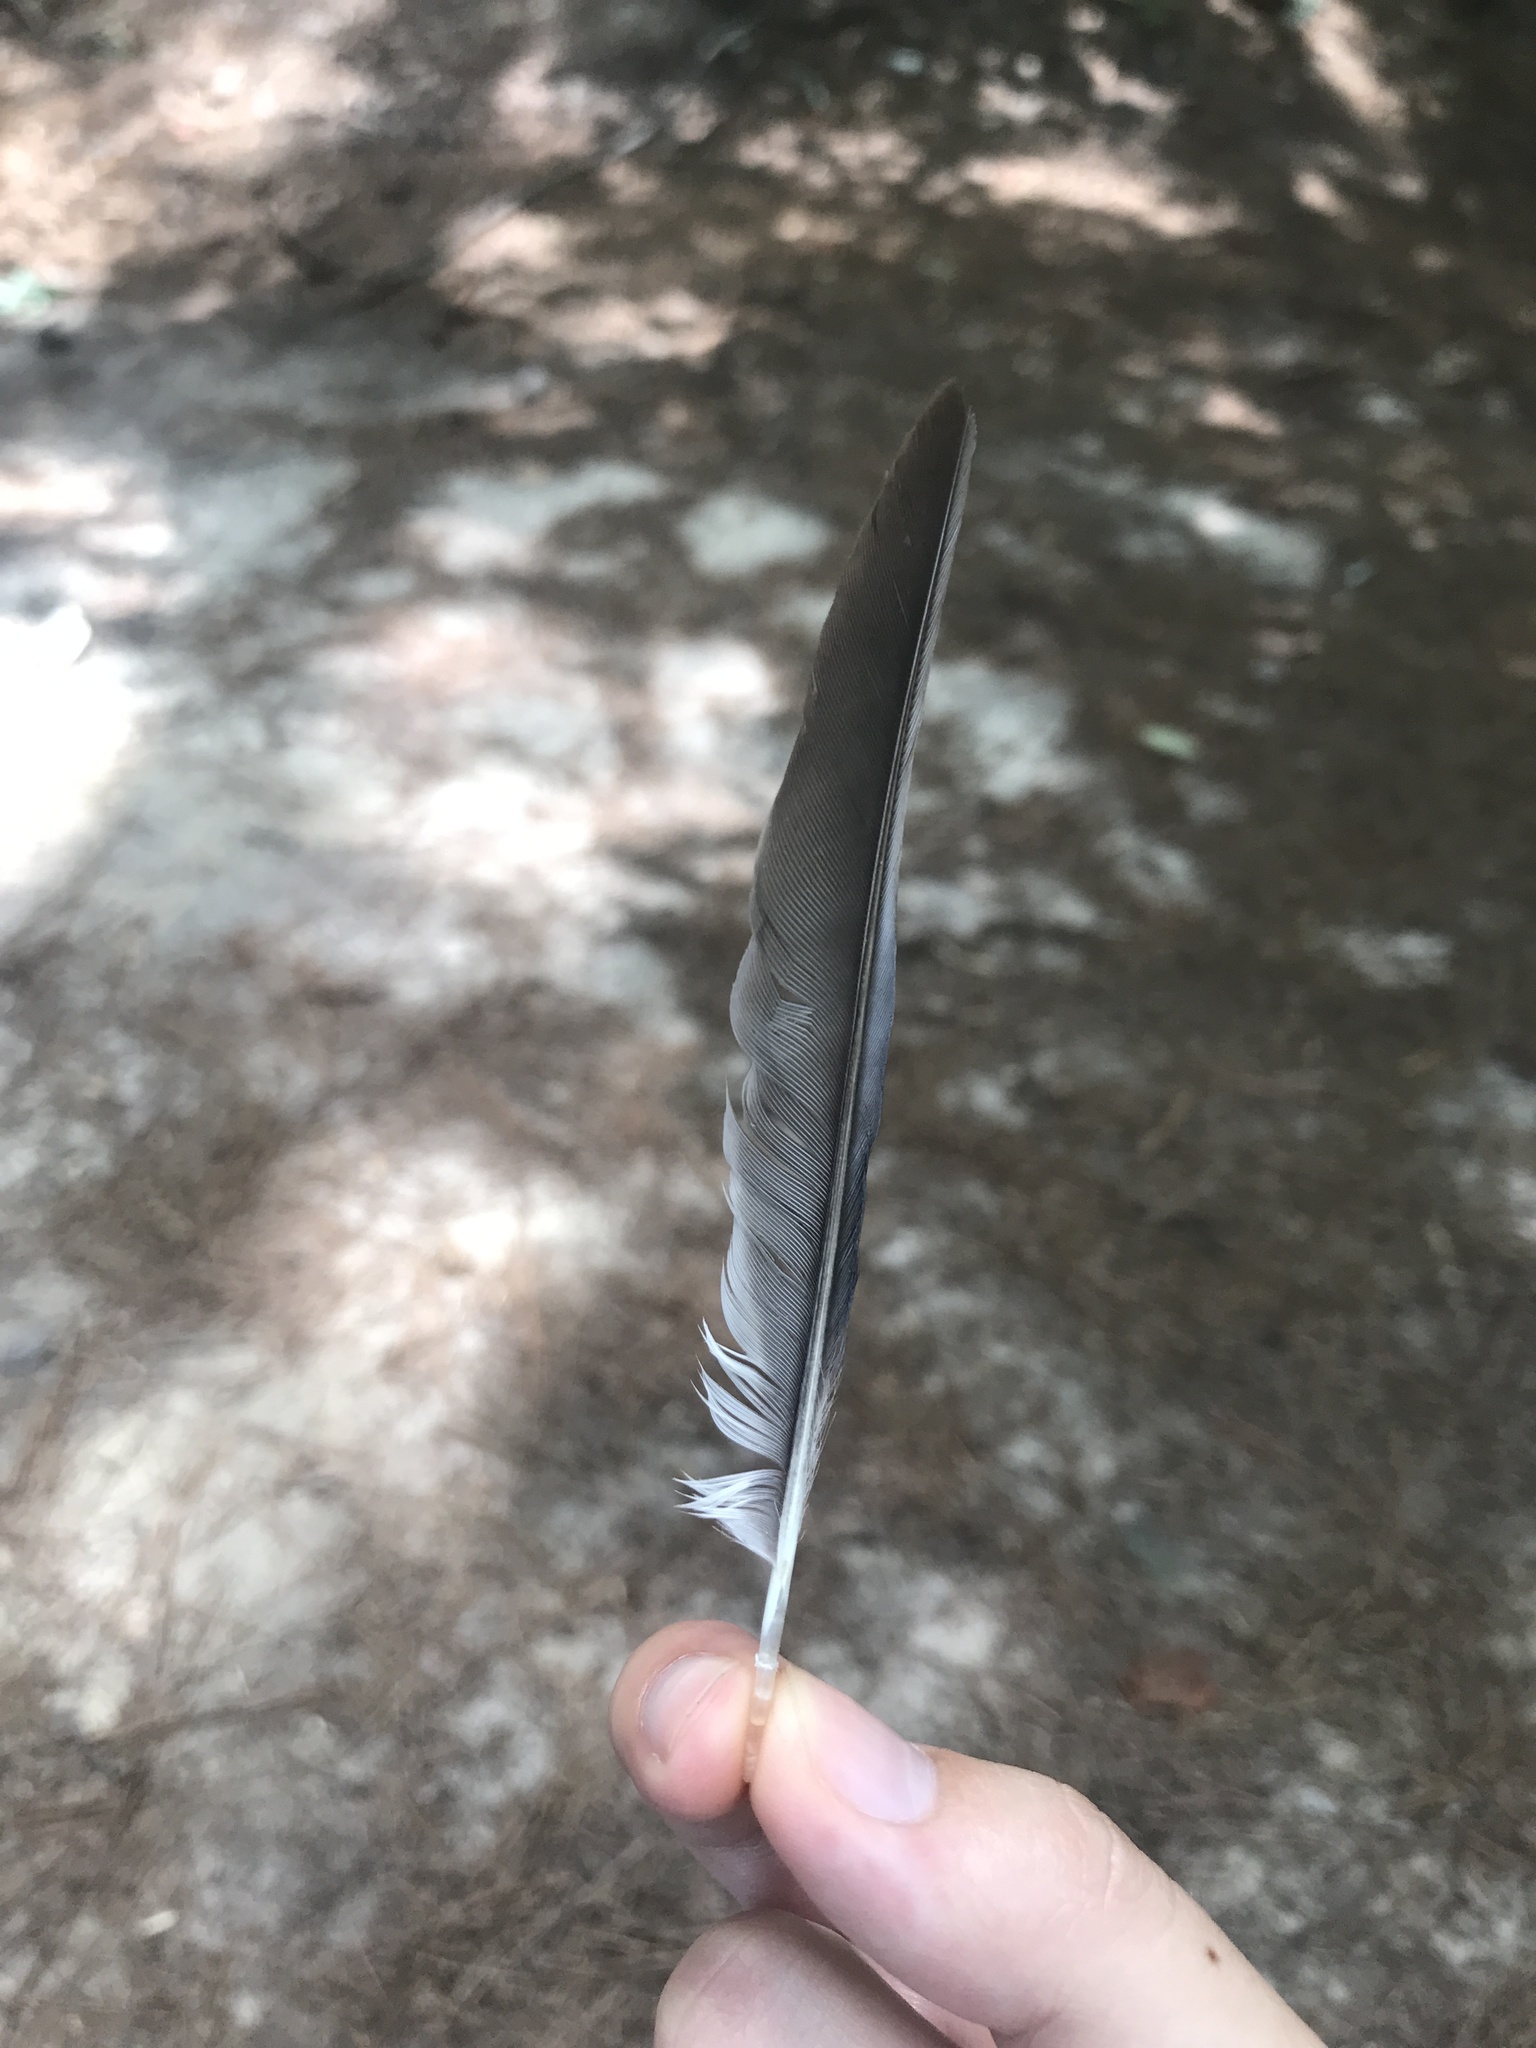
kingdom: Animalia
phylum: Chordata
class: Aves
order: Passeriformes
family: Corvidae
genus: Cyanocitta
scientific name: Cyanocitta cristata
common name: Blue jay
